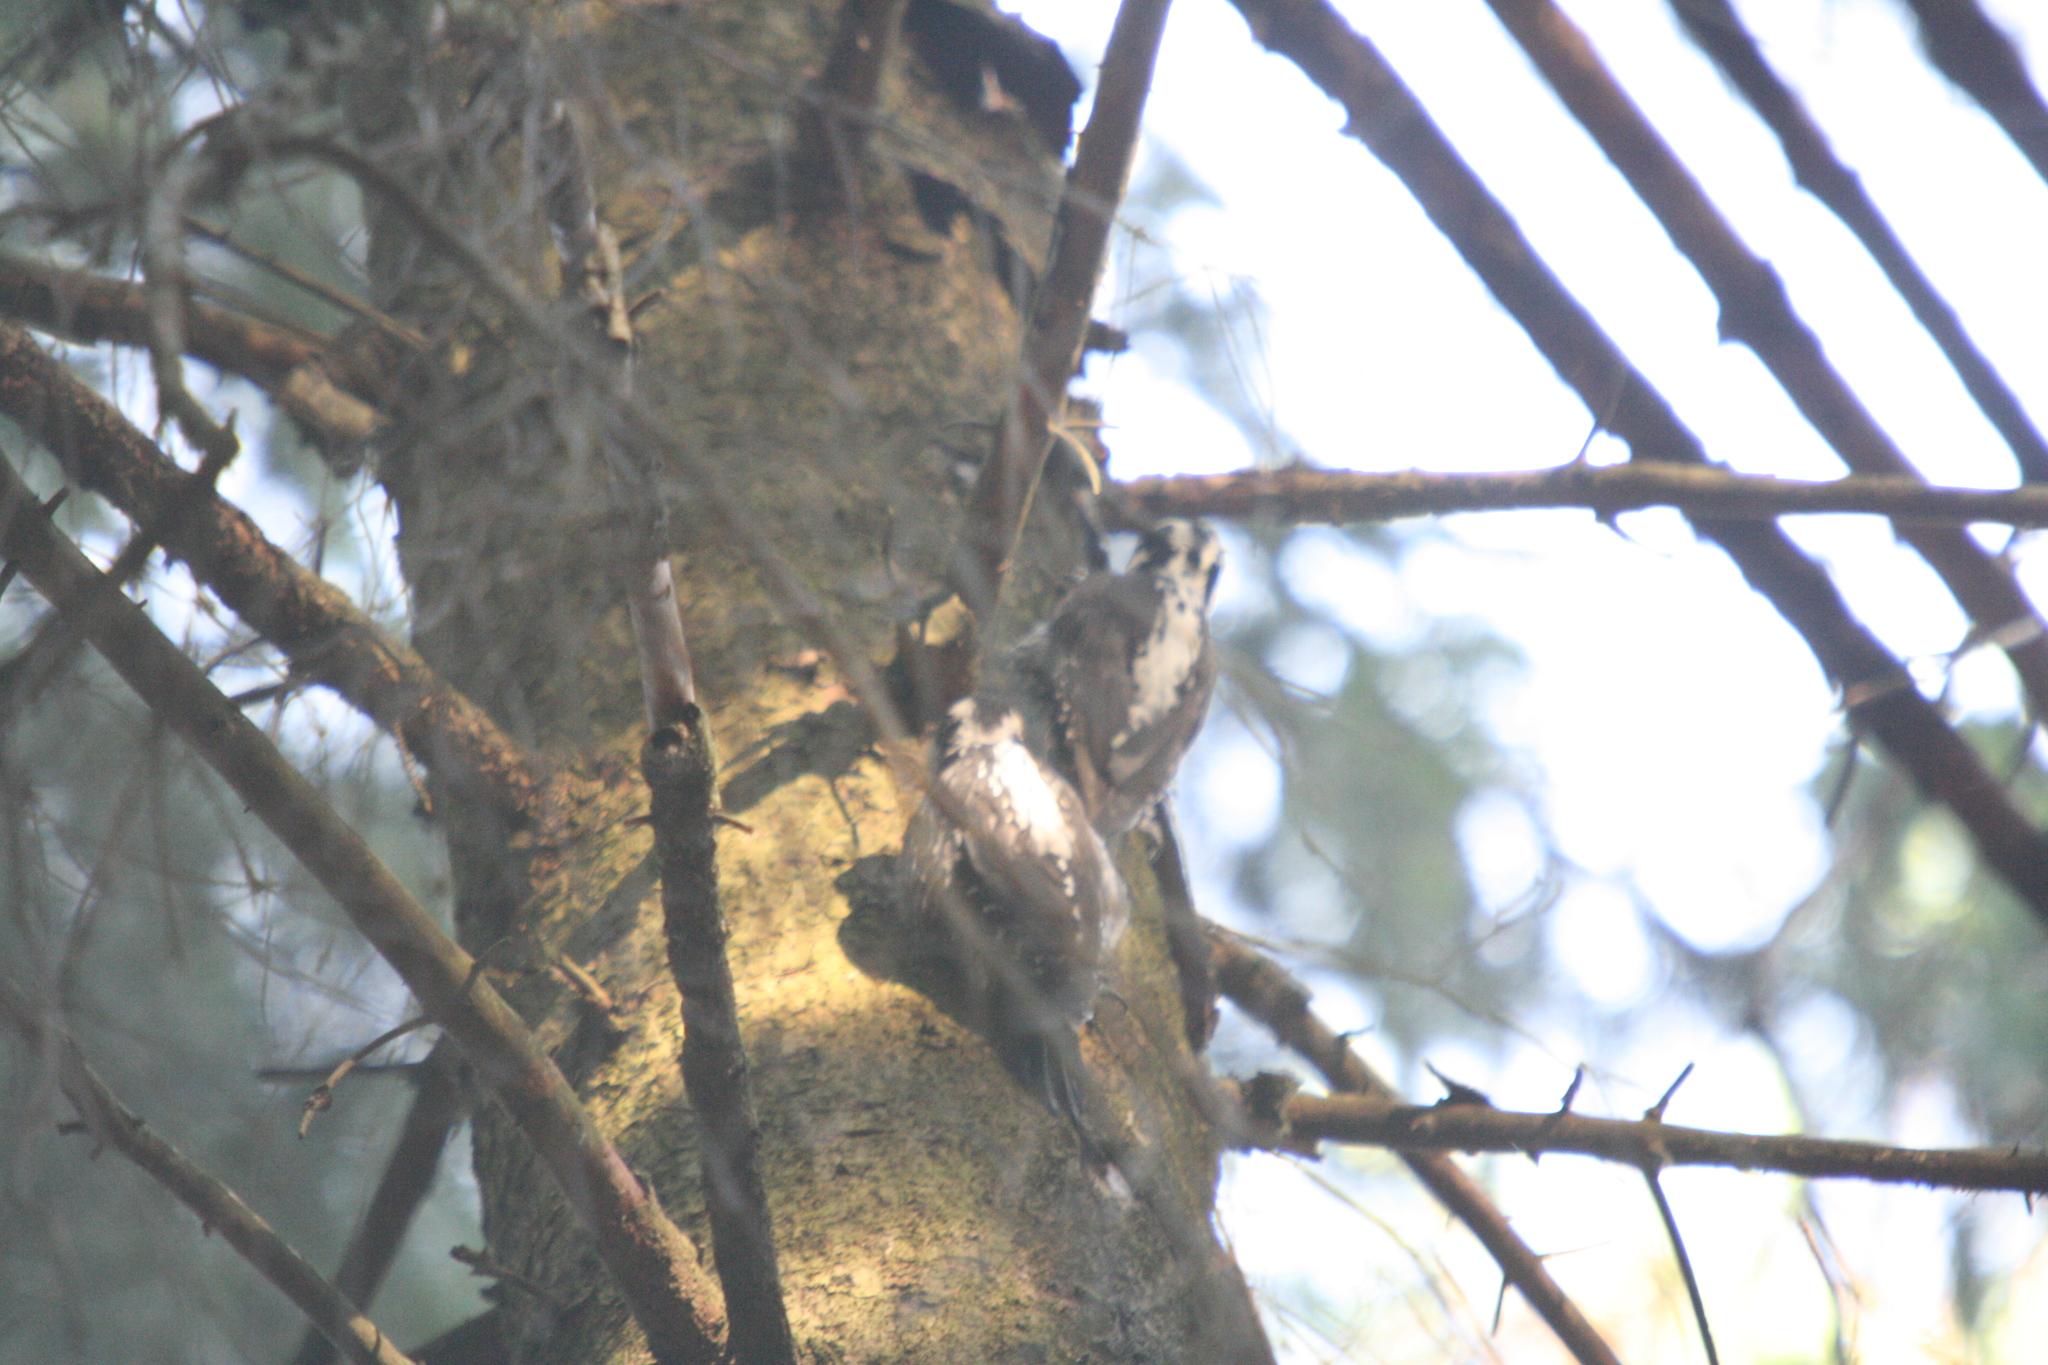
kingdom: Animalia
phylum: Chordata
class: Aves
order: Piciformes
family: Picidae
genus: Picoides
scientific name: Picoides tridactylus
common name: Eurasian three-toed woodpecker
